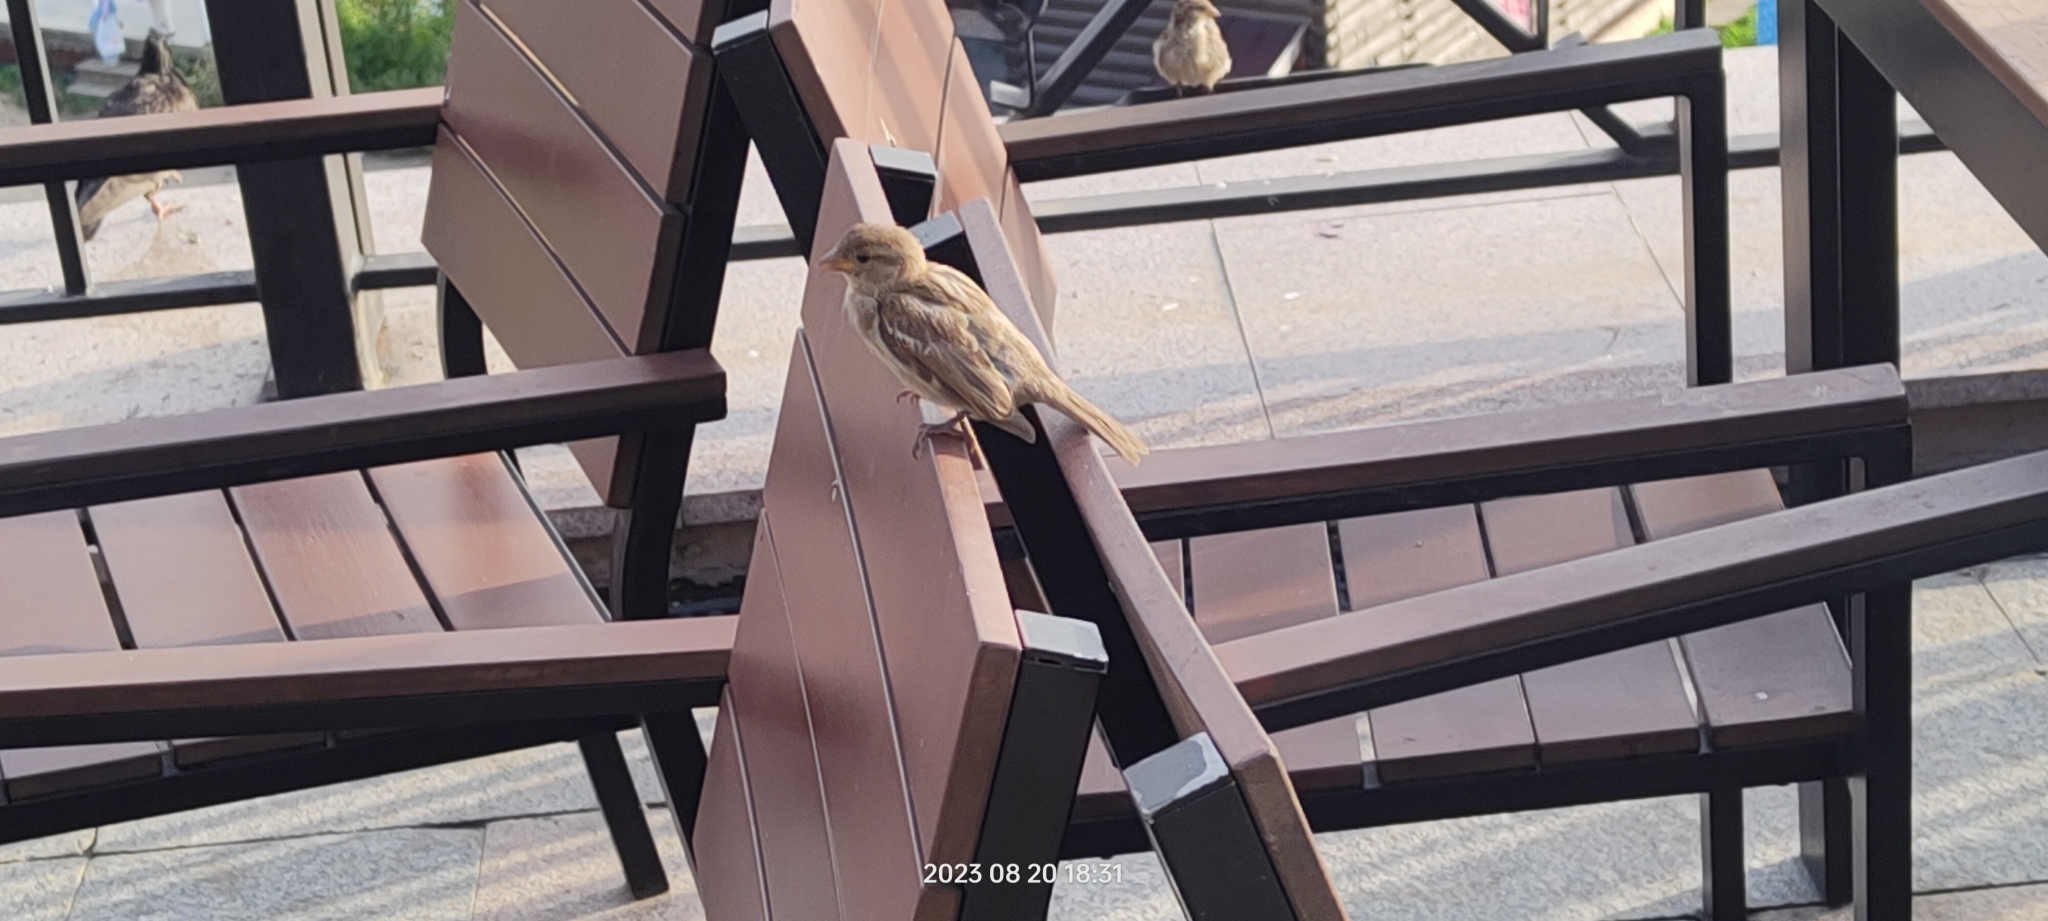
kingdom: Animalia
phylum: Chordata
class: Aves
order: Passeriformes
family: Passeridae
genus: Passer
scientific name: Passer domesticus
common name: House sparrow
